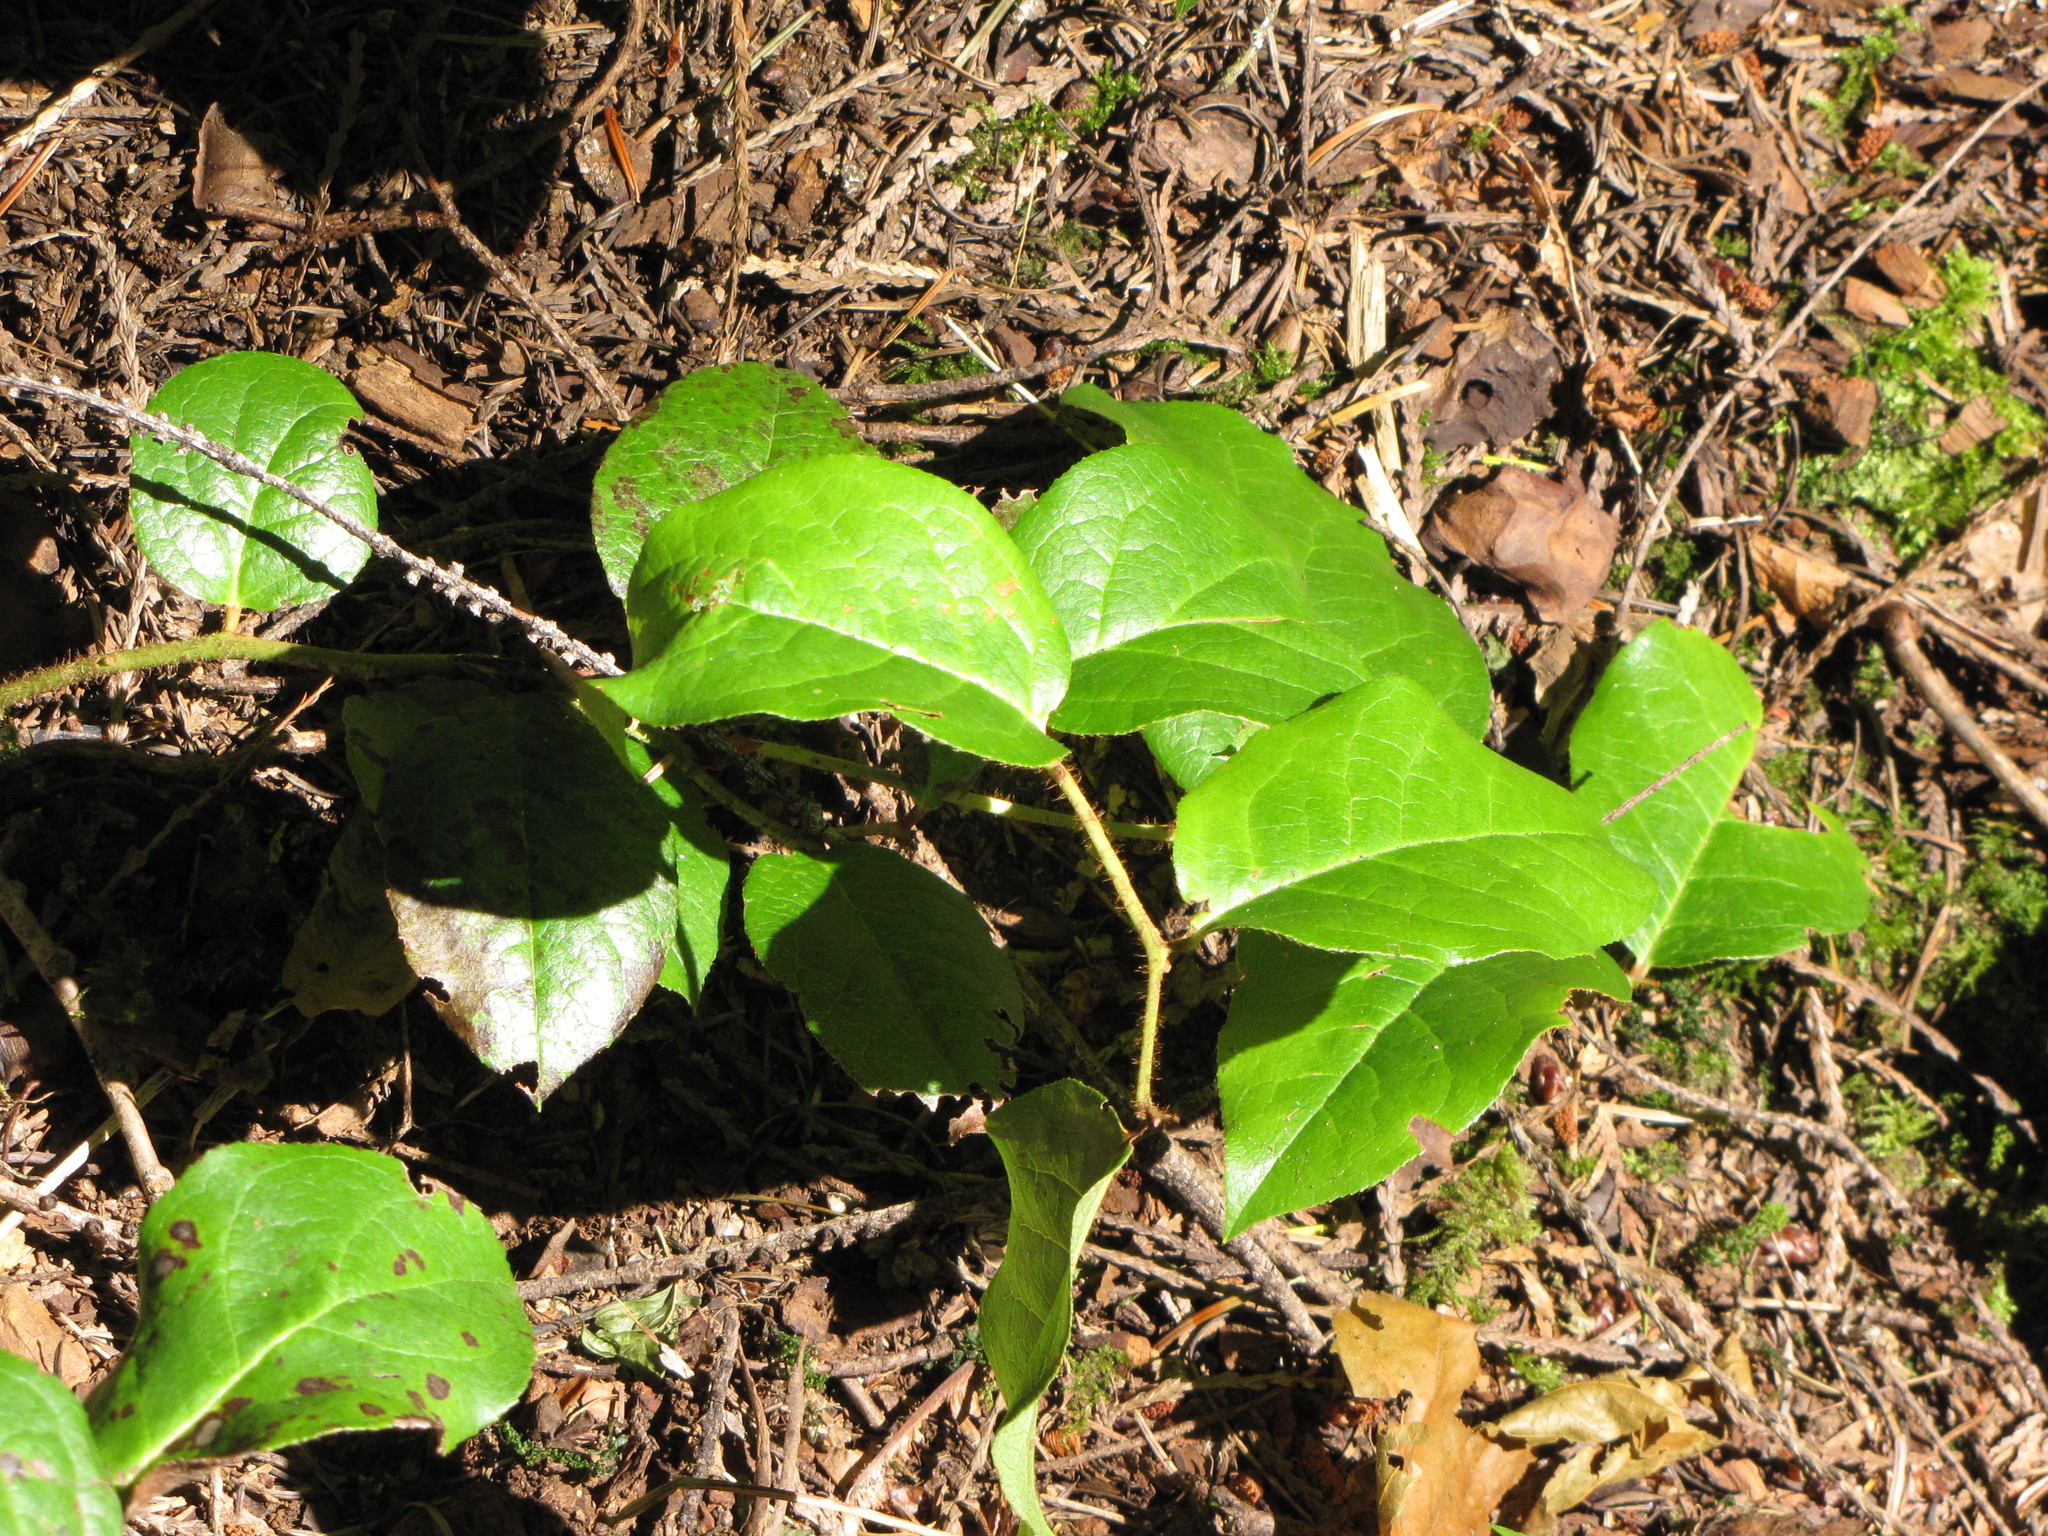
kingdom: Plantae
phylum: Tracheophyta
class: Magnoliopsida
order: Ericales
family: Ericaceae
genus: Gaultheria
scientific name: Gaultheria shallon
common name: Shallon
